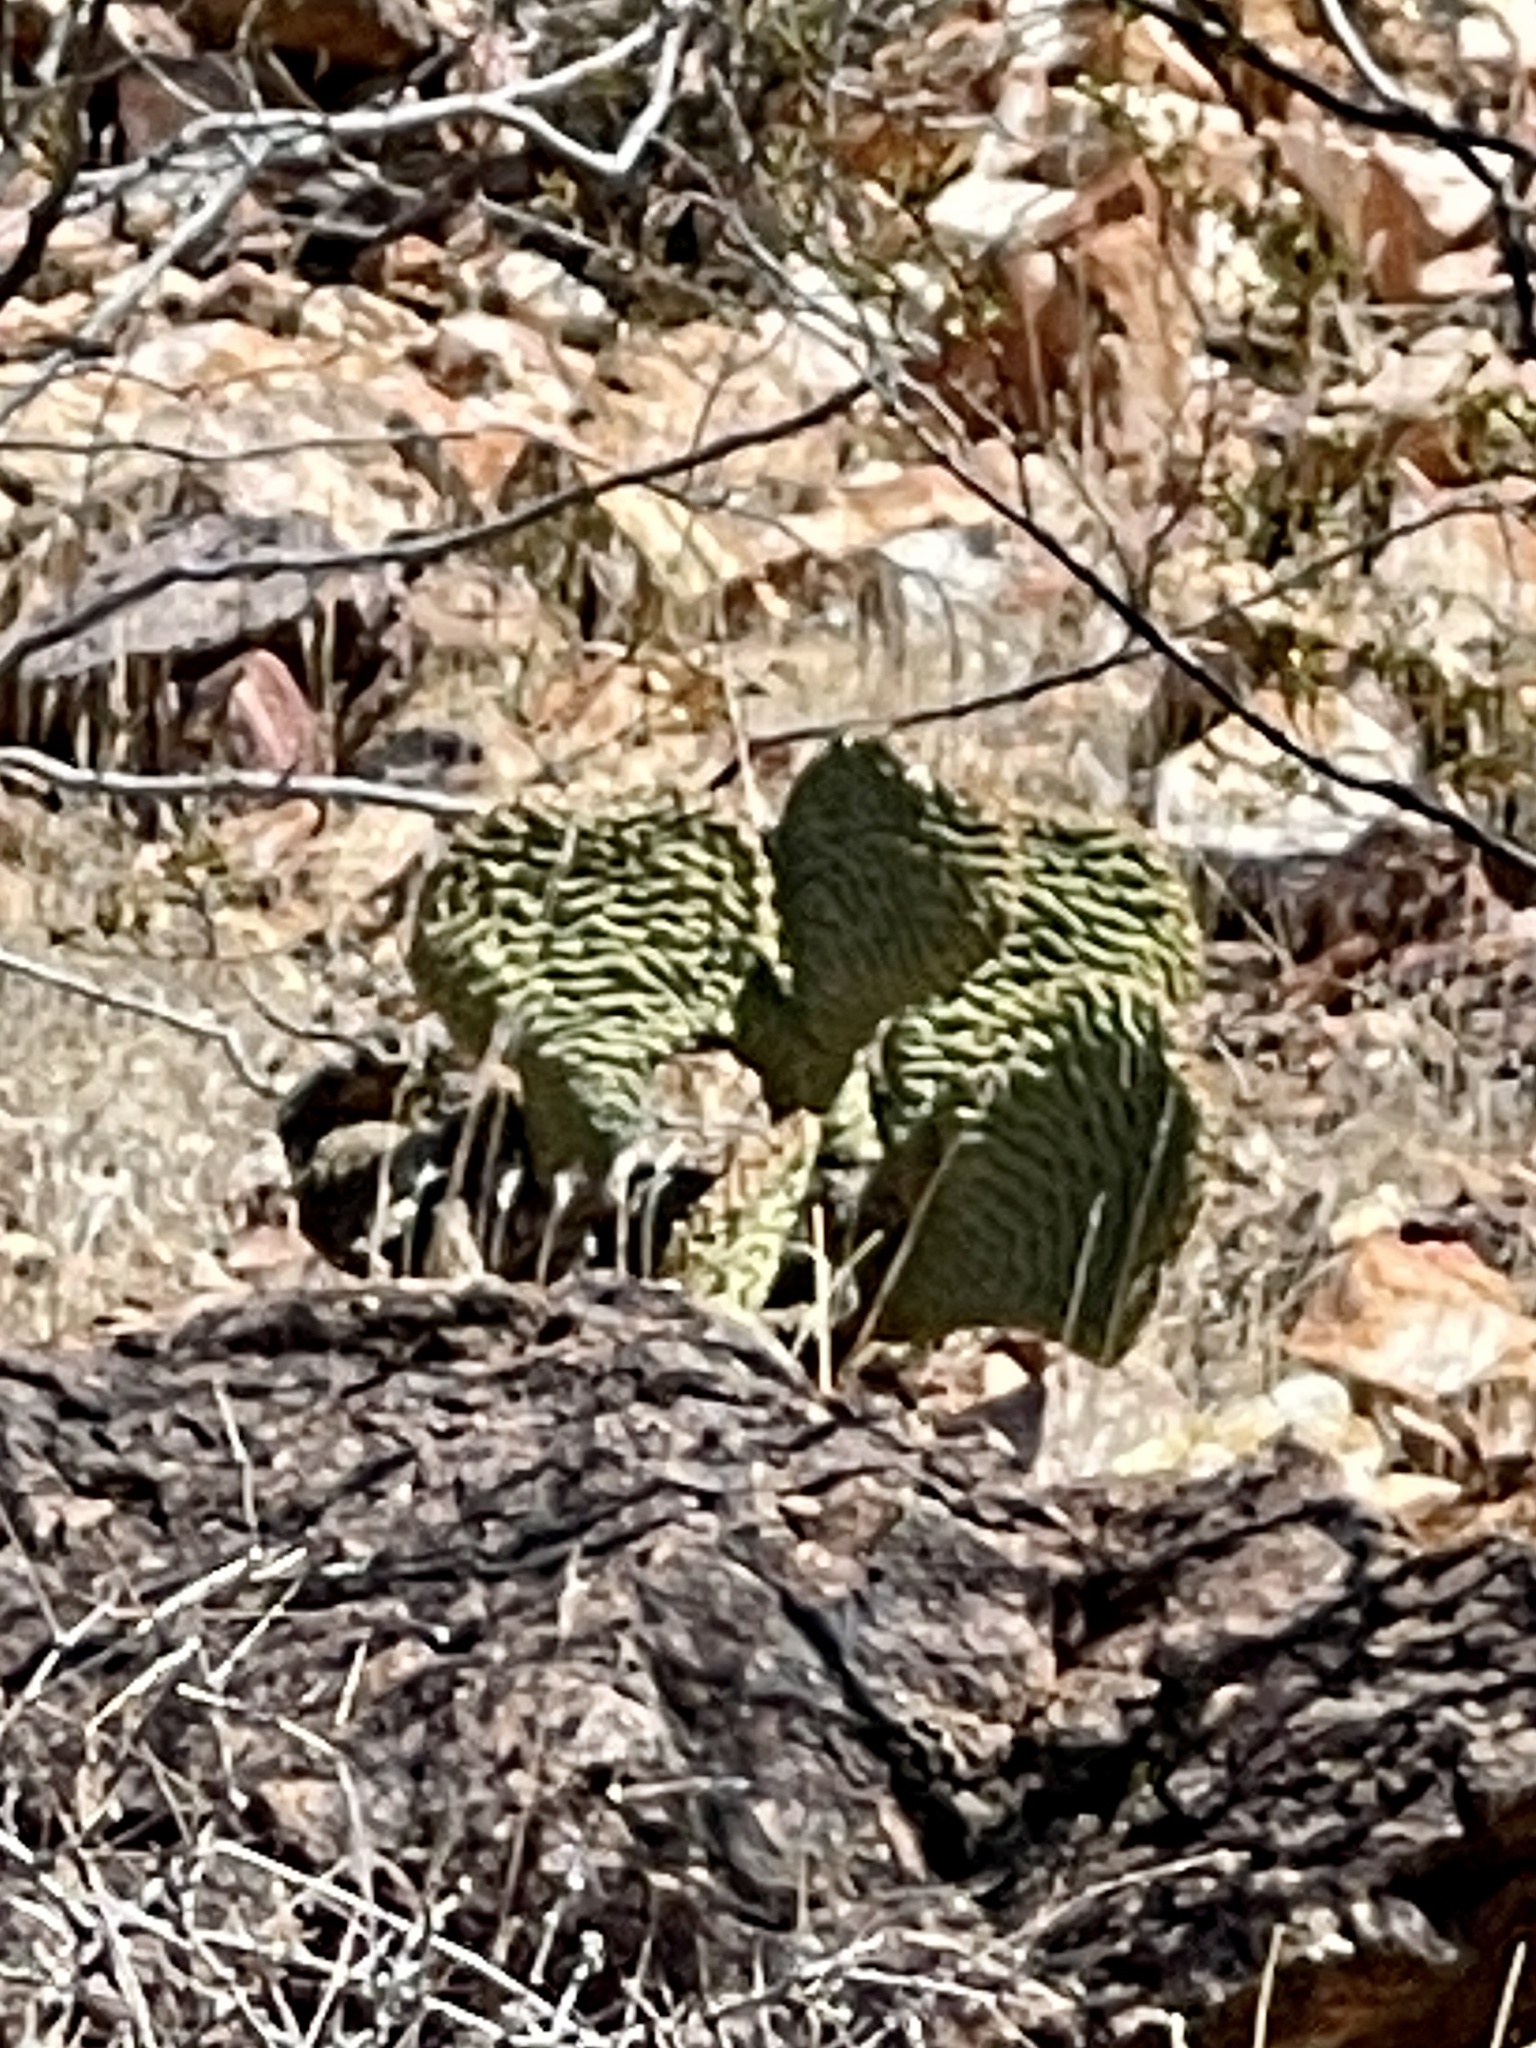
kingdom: Plantae
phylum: Tracheophyta
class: Magnoliopsida
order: Caryophyllales
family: Cactaceae
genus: Opuntia
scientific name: Opuntia basilaris
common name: Beavertail prickly-pear
